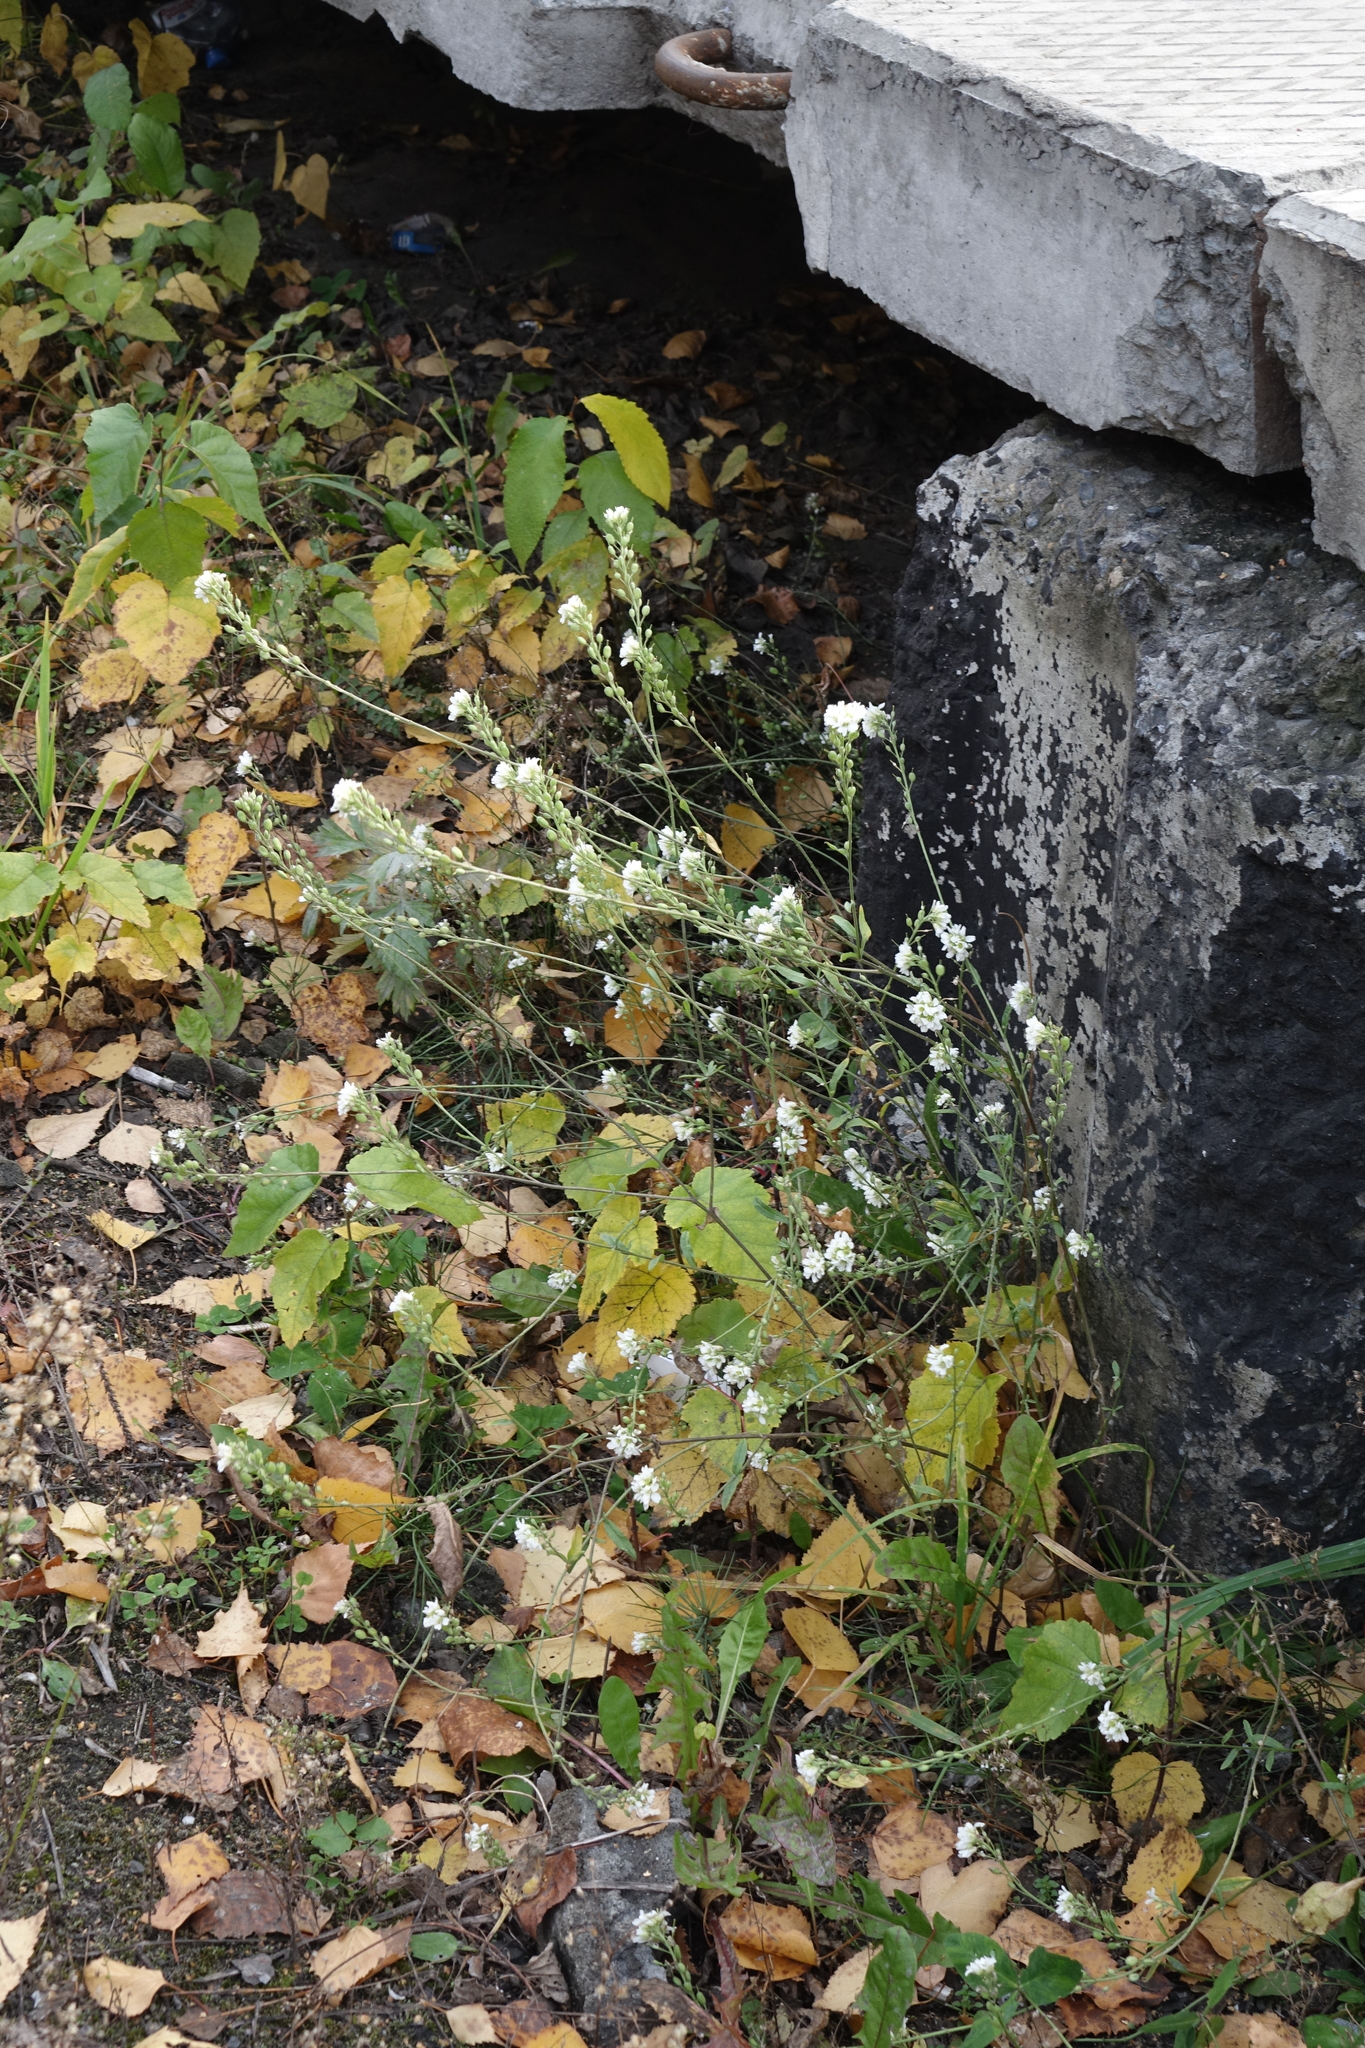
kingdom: Plantae
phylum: Tracheophyta
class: Magnoliopsida
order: Brassicales
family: Brassicaceae
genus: Berteroa
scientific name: Berteroa incana
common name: Hoary alison
